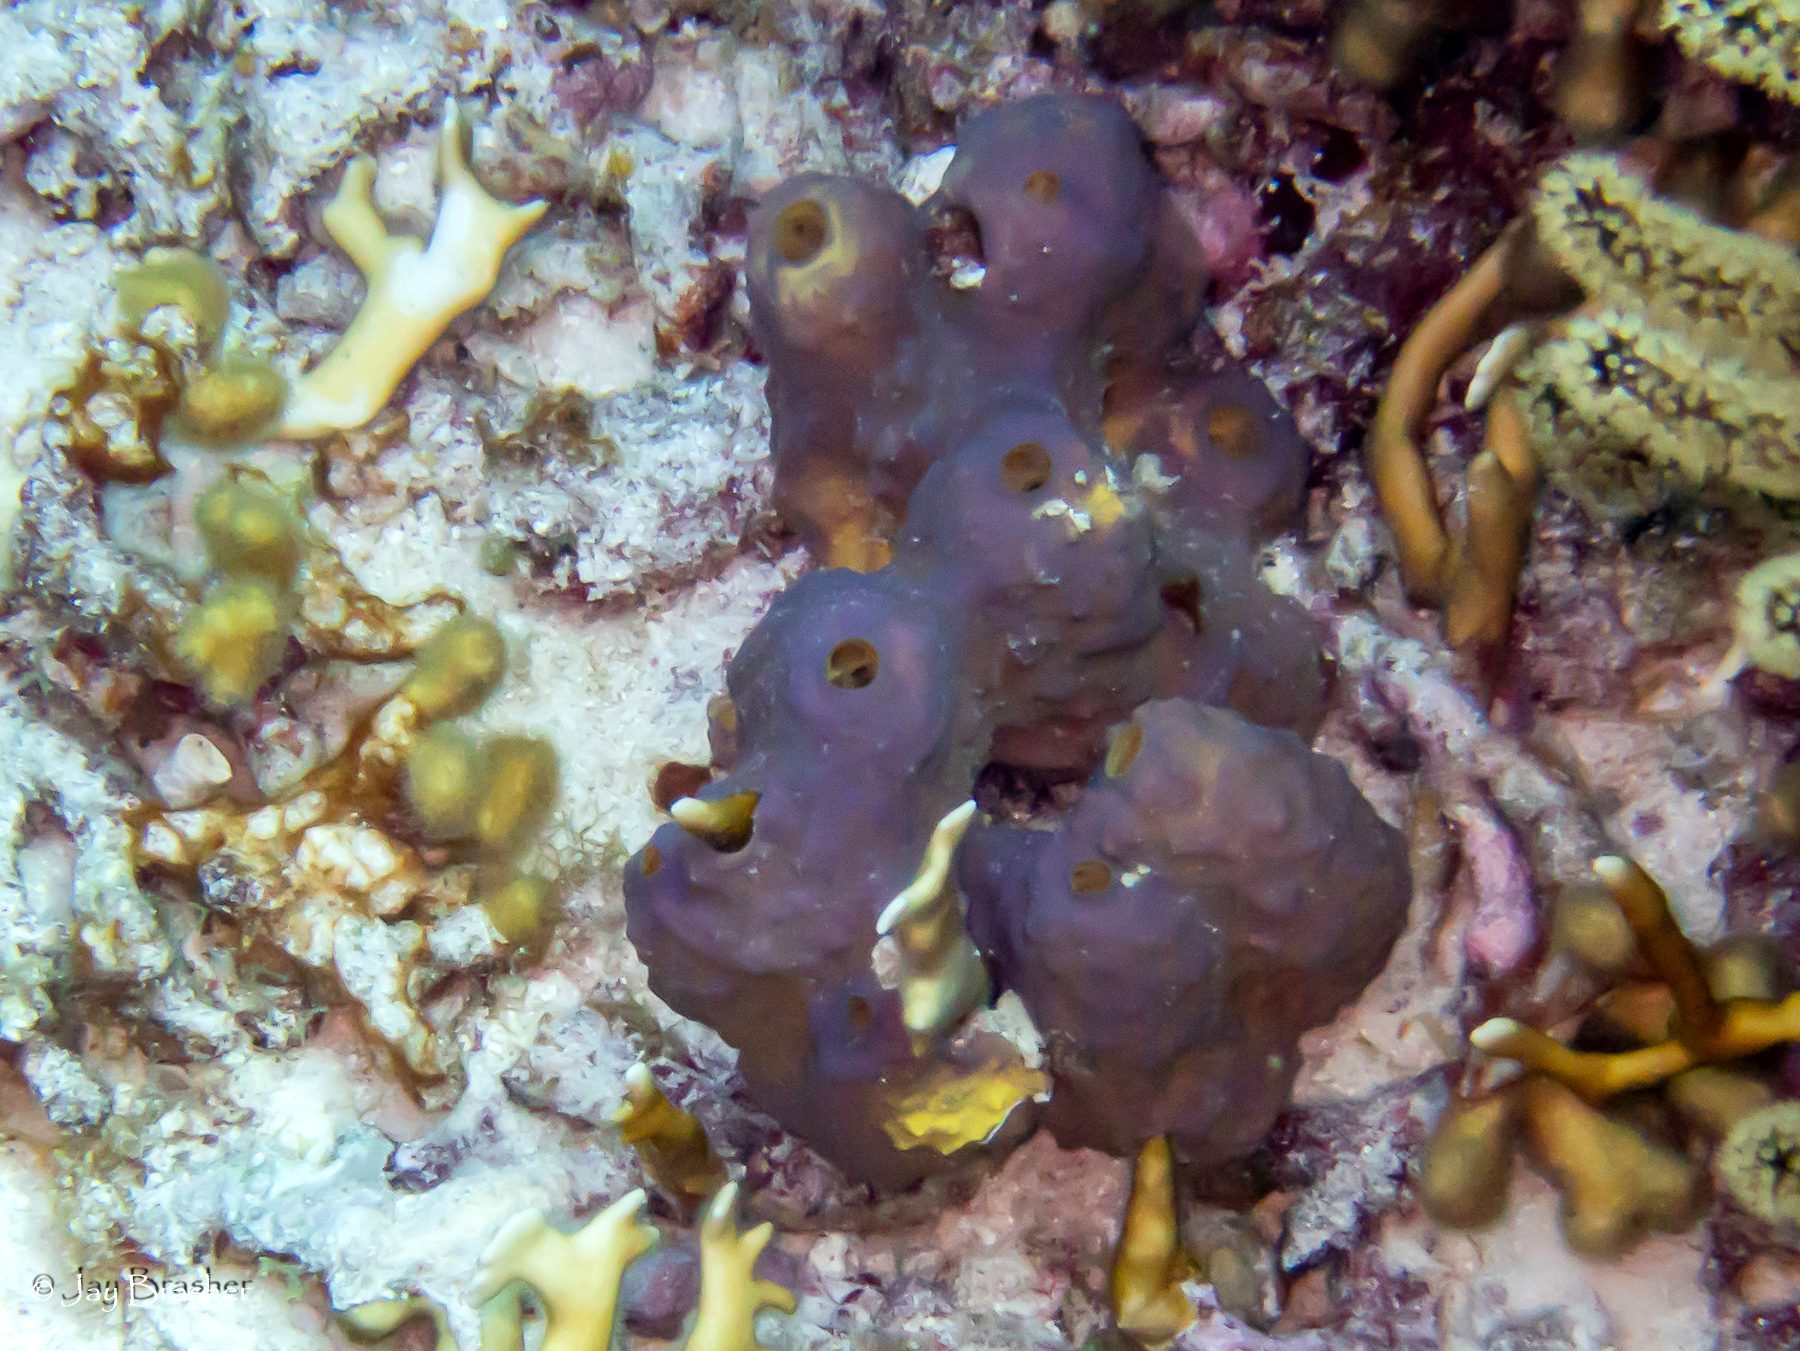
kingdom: Animalia
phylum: Porifera
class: Demospongiae
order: Verongiida
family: Aplysinidae
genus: Aiolochroia
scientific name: Aiolochroia crassa
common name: Branching tube sponge
